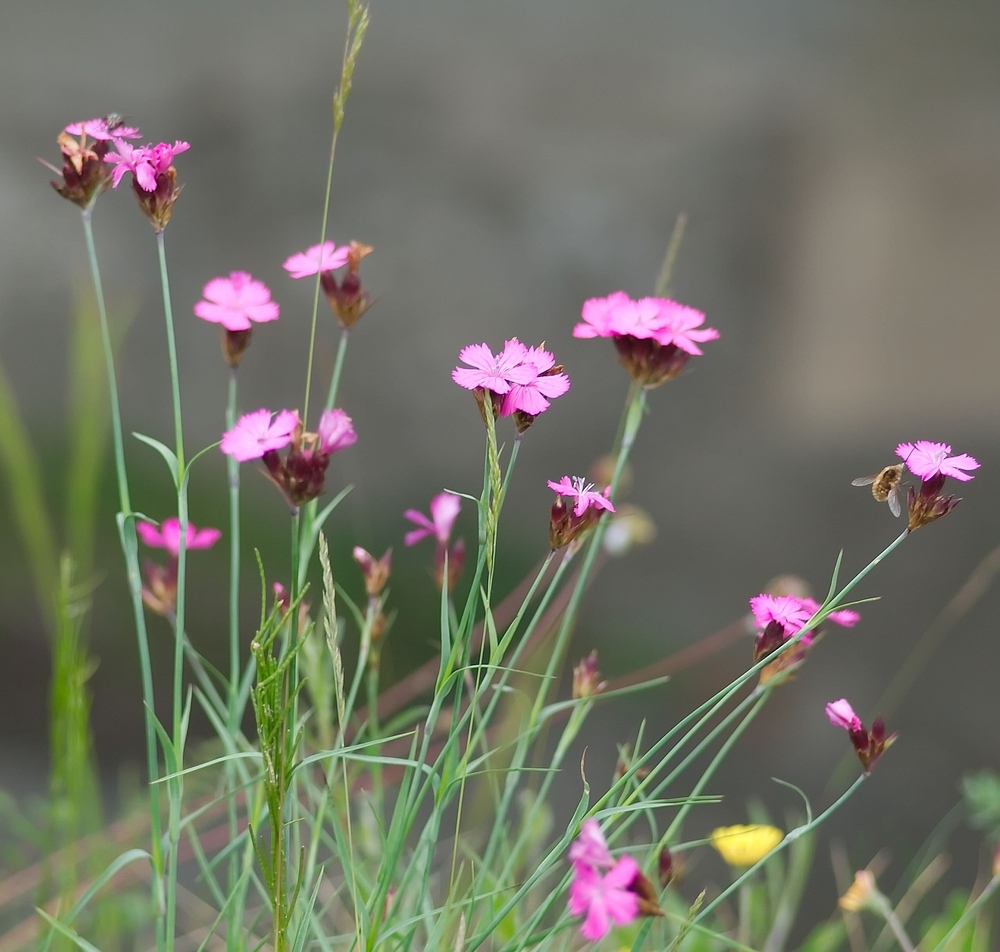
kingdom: Plantae
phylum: Tracheophyta
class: Magnoliopsida
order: Caryophyllales
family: Caryophyllaceae
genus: Dianthus
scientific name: Dianthus carthusianorum
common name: Carthusian pink
